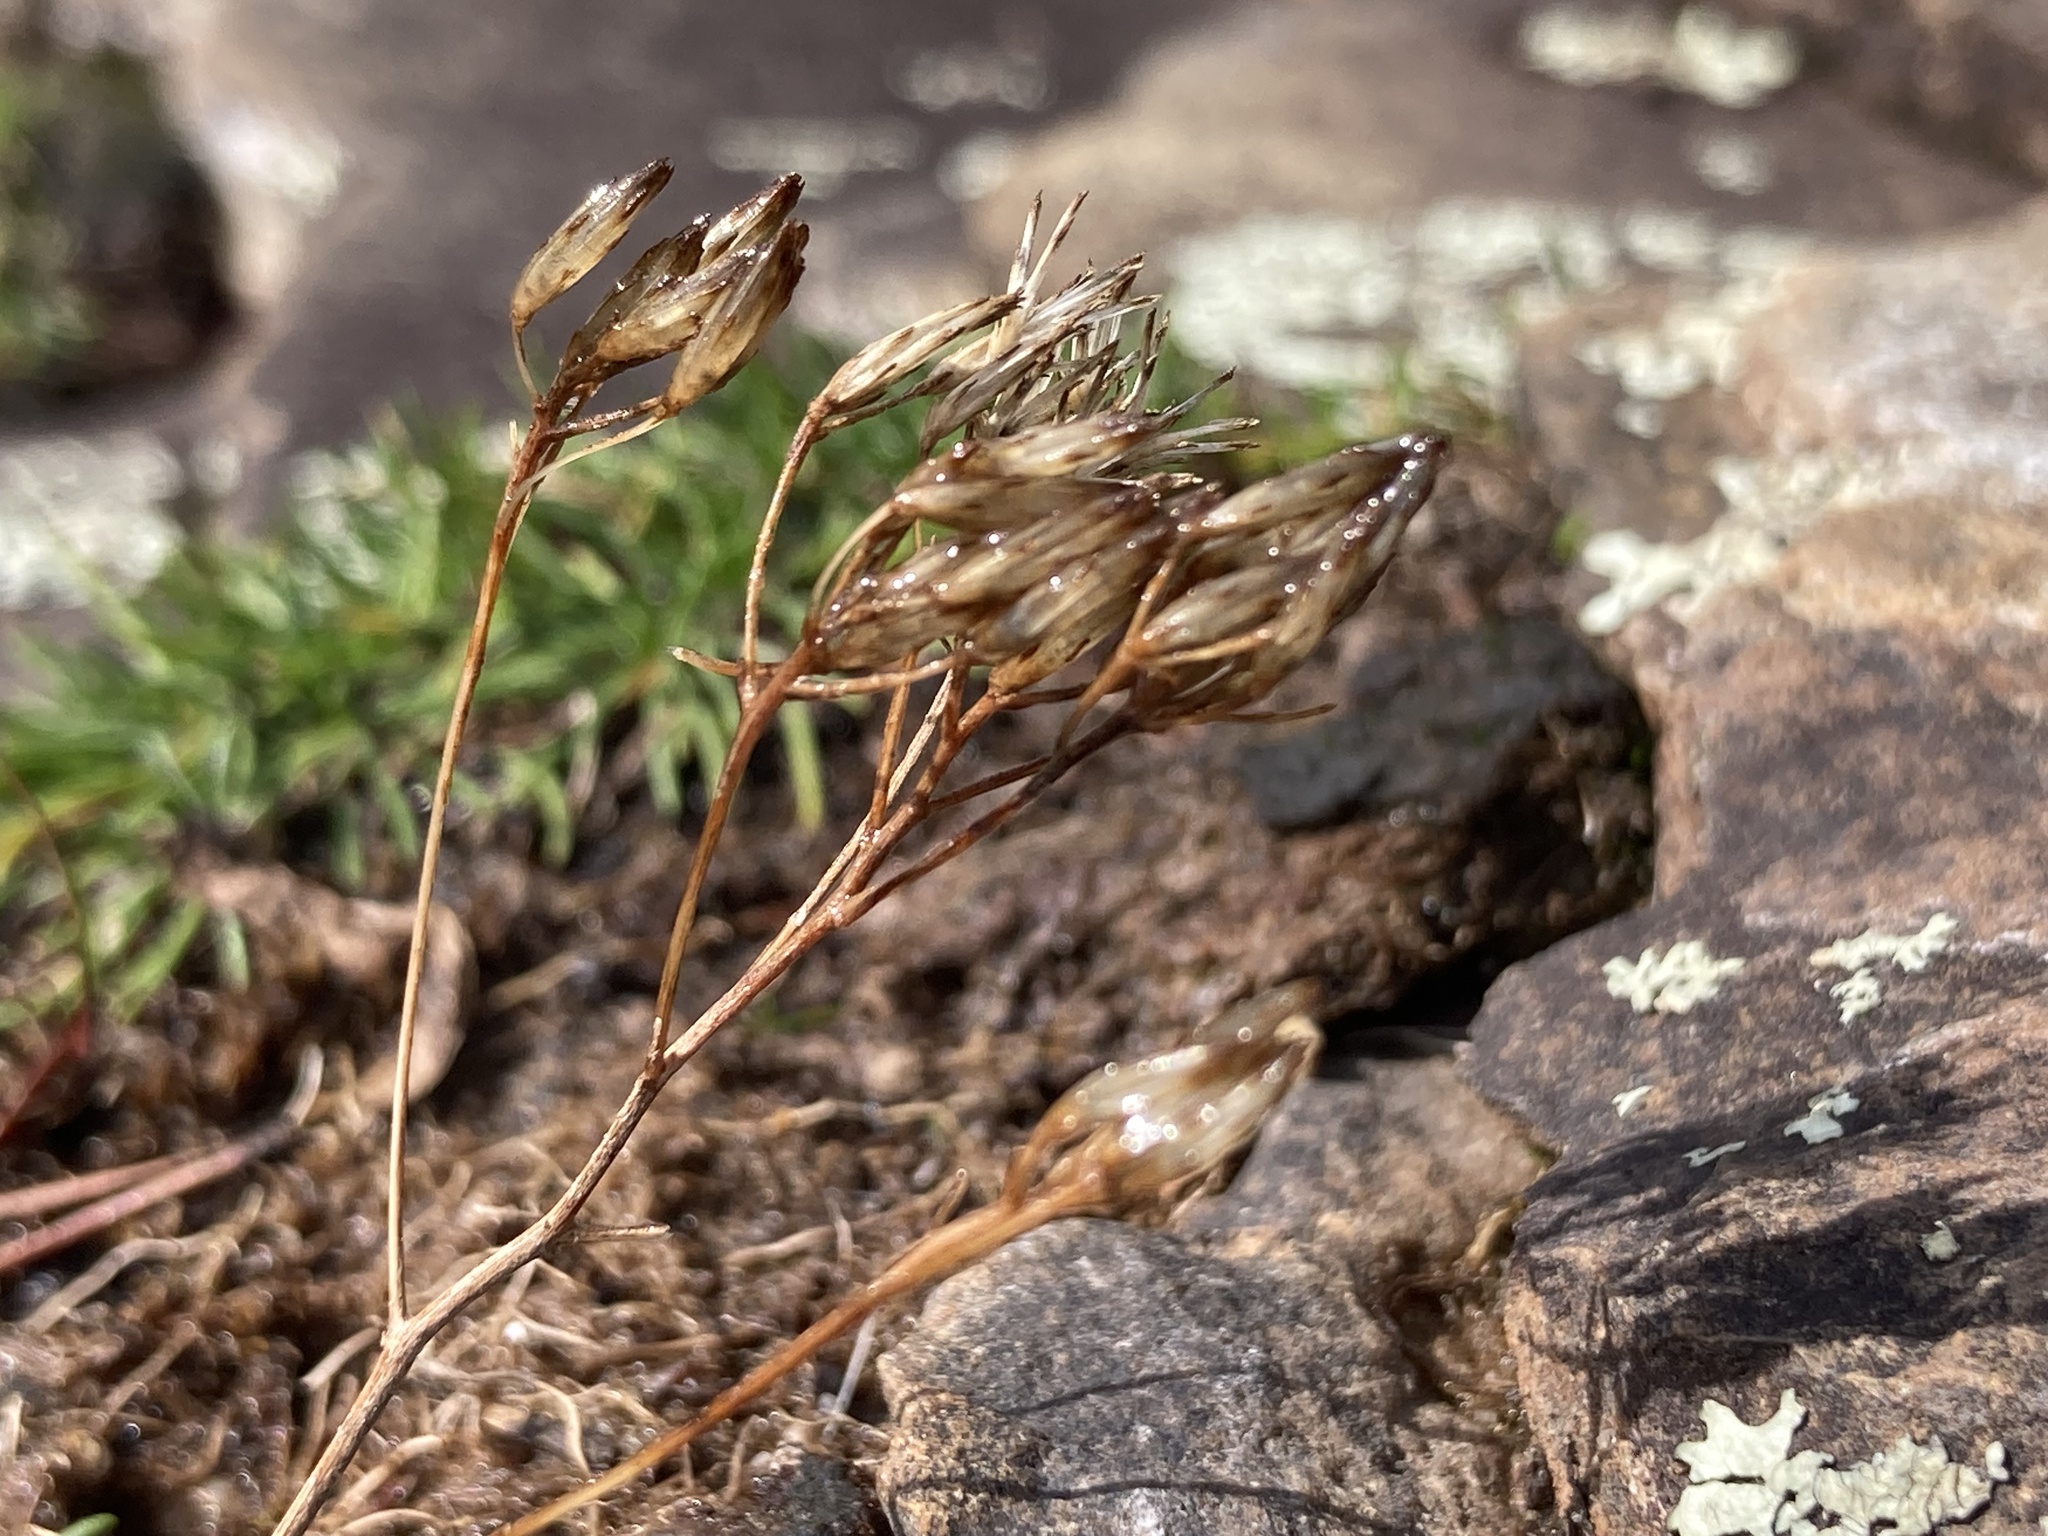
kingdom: Plantae
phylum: Tracheophyta
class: Magnoliopsida
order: Asterales
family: Asteraceae
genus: Bigelowia
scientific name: Bigelowia nuttallii
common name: Nuttall's rayless-goldenrod
